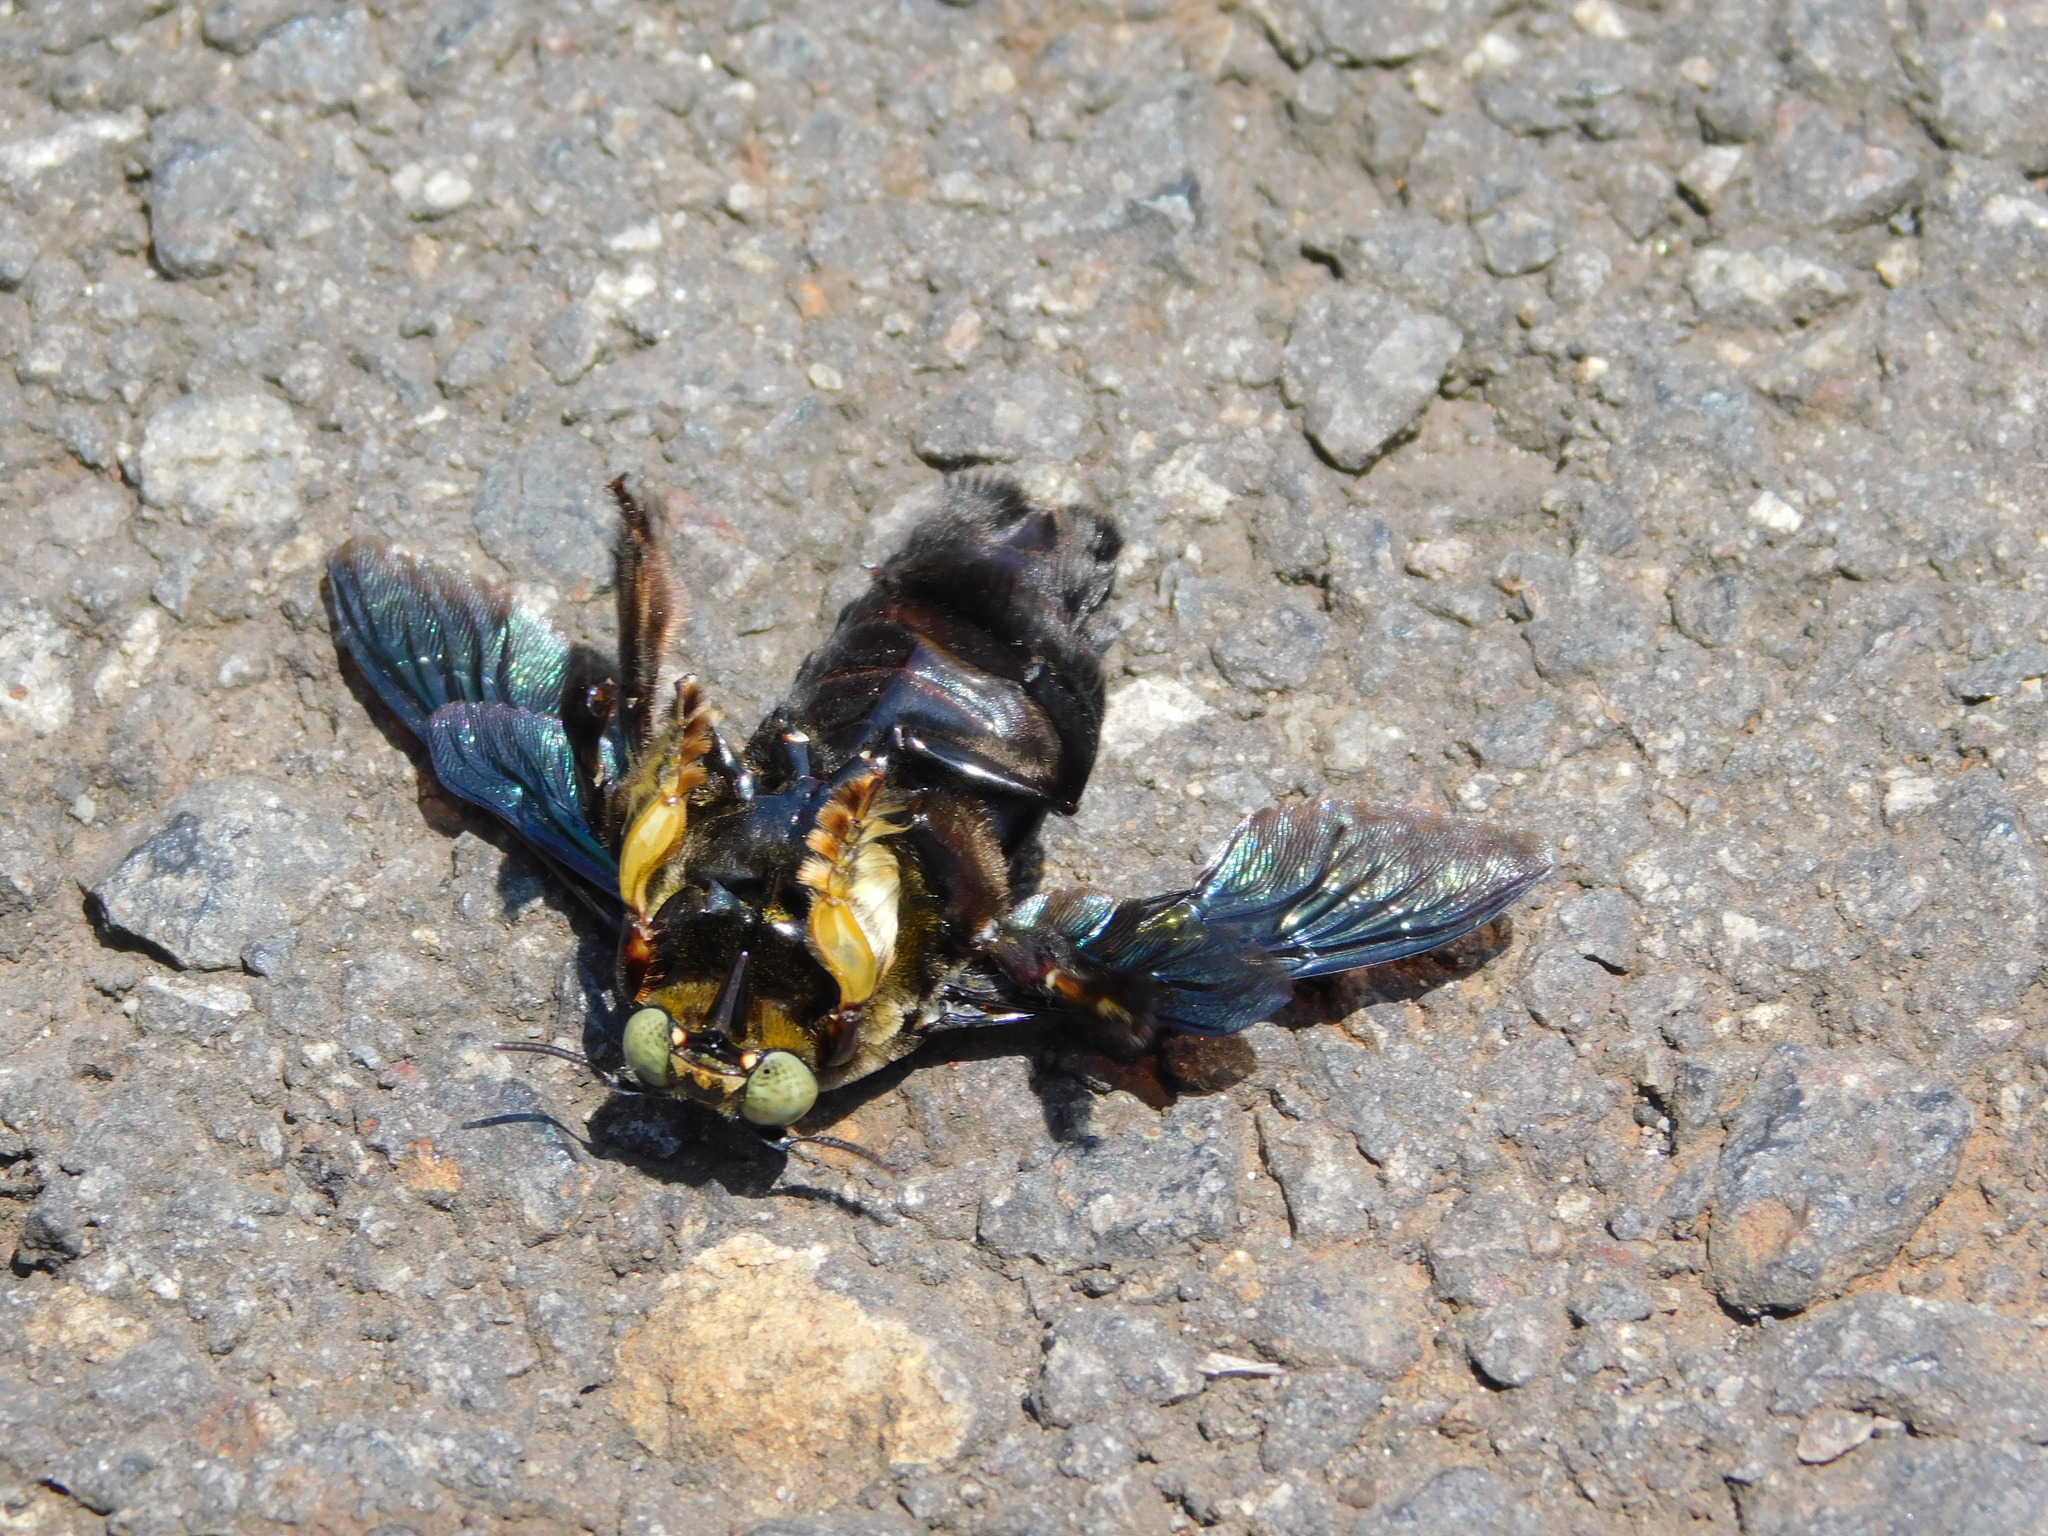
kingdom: Animalia
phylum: Arthropoda
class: Insecta
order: Hymenoptera
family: Apidae
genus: Xylocopa
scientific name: Xylocopa latipes
